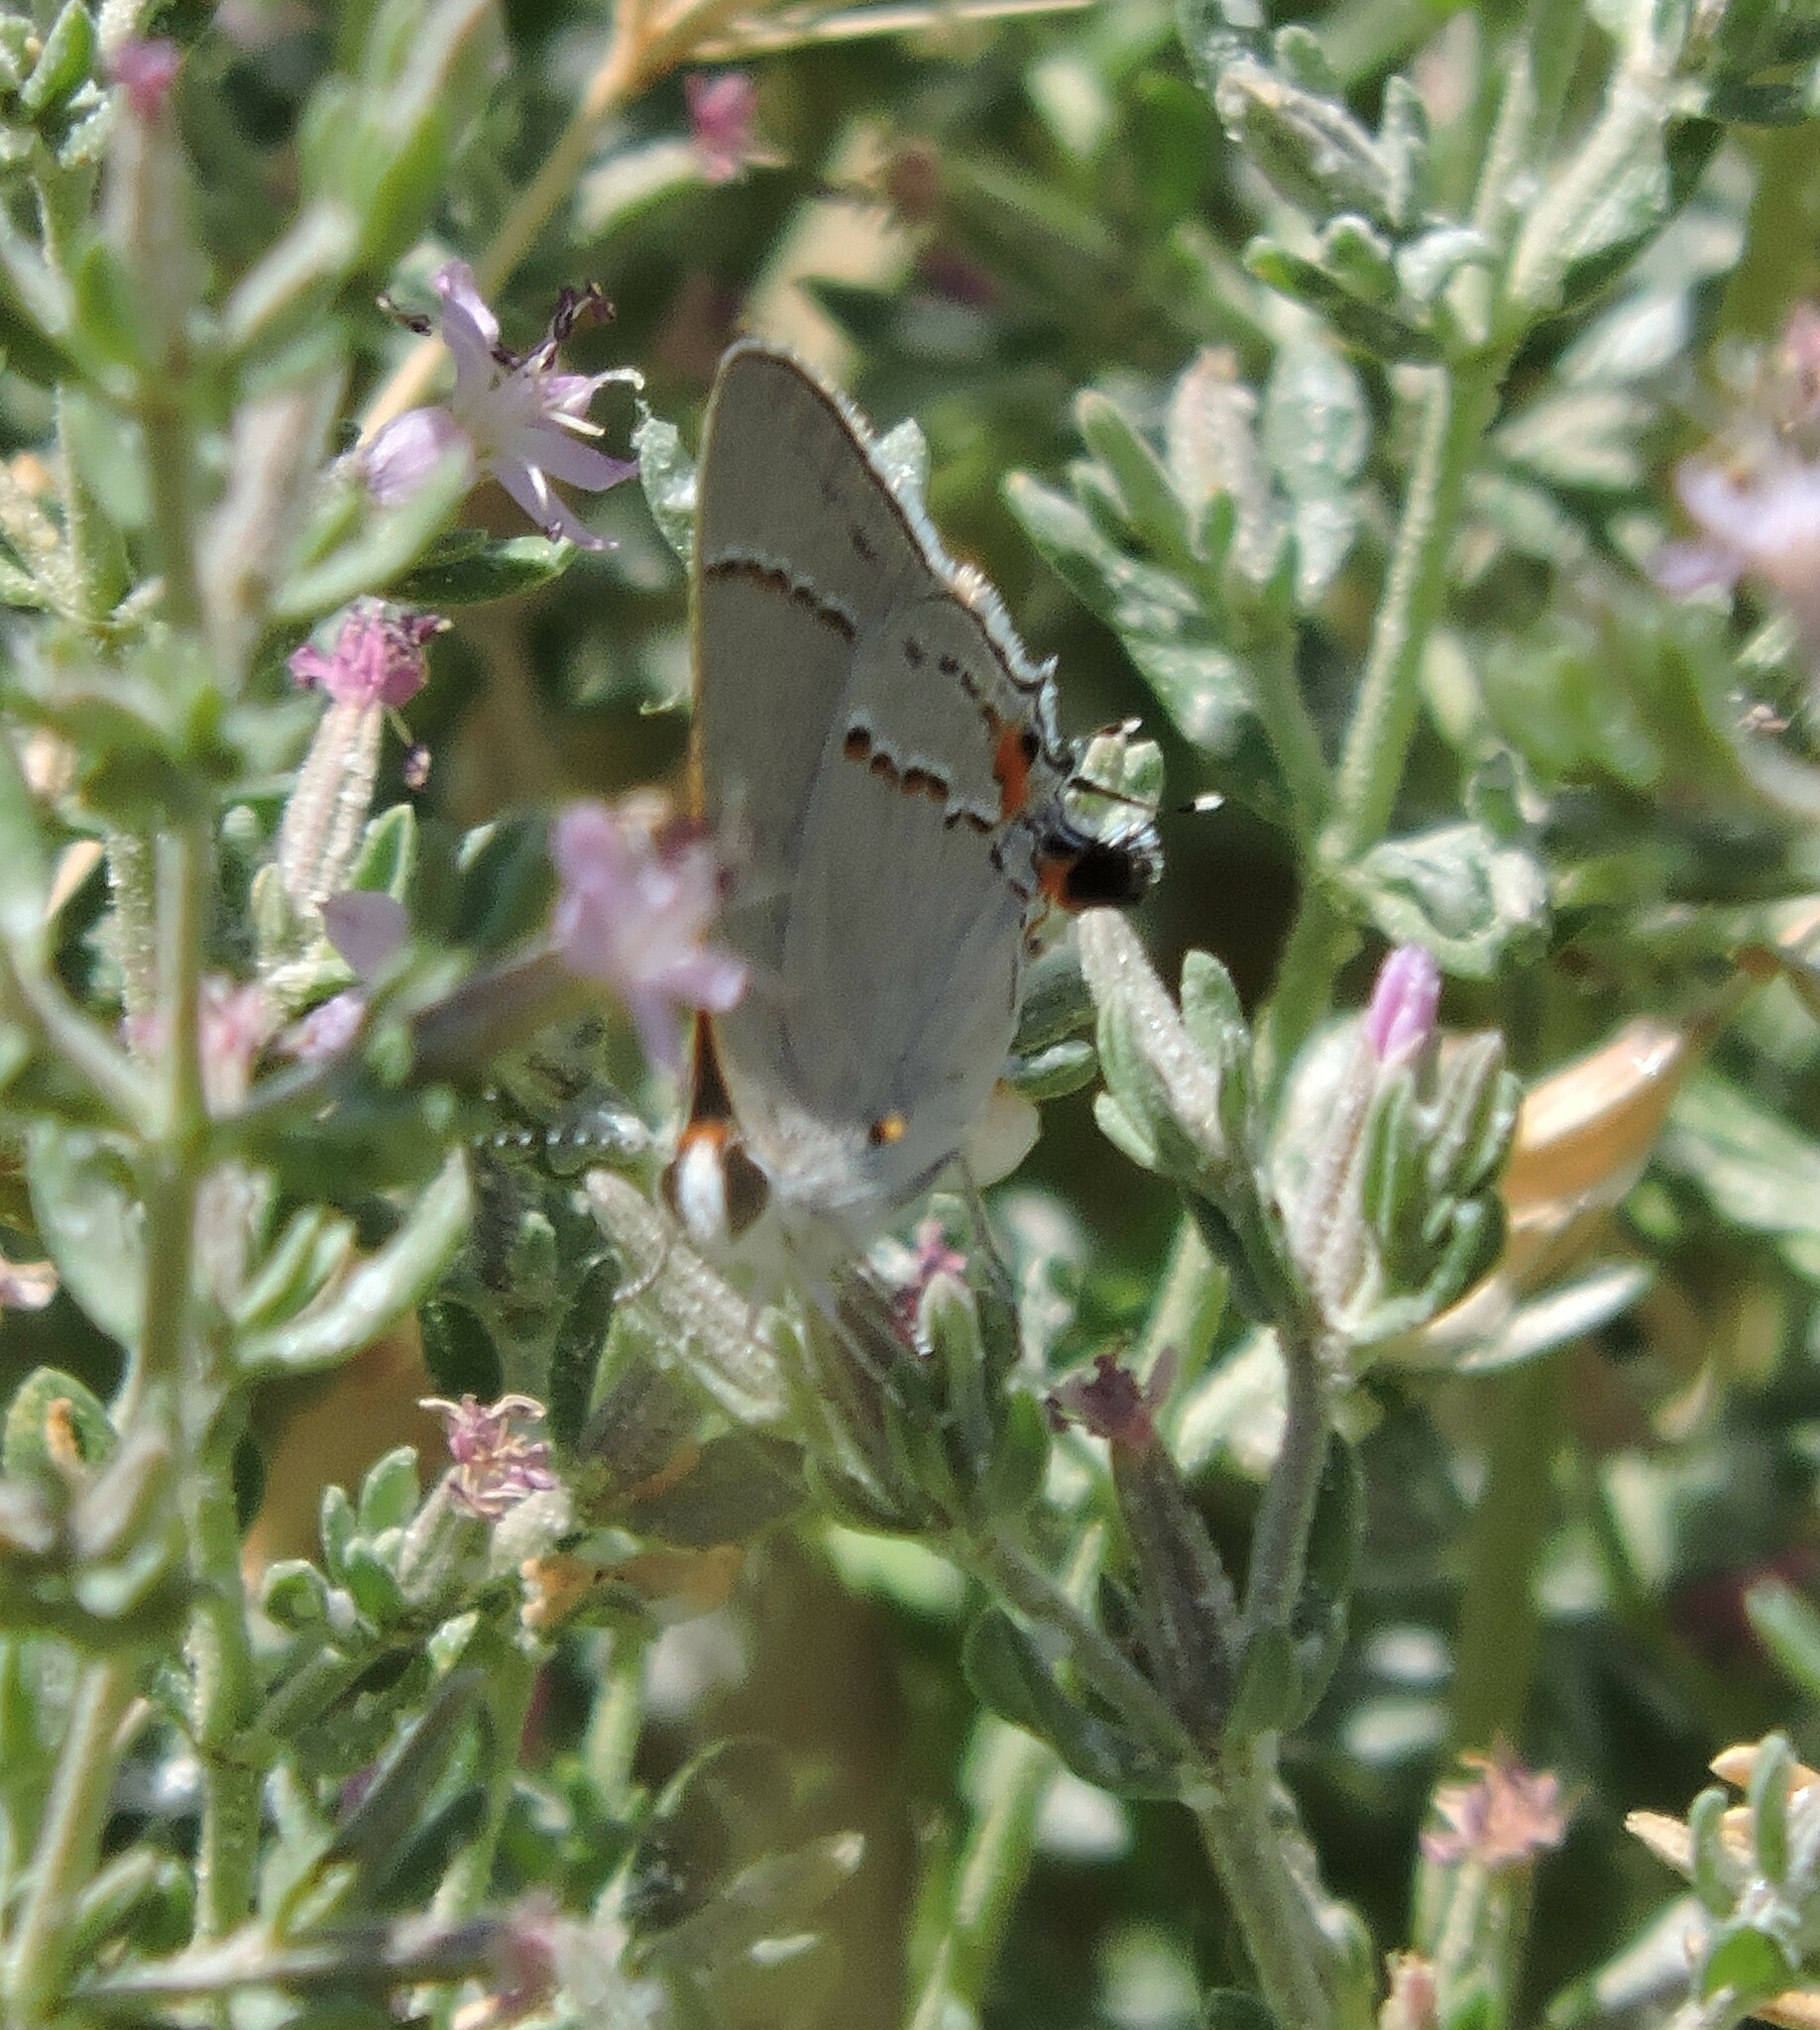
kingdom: Animalia
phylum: Arthropoda
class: Insecta
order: Lepidoptera
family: Lycaenidae
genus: Strymon
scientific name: Strymon melinus
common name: Gray hairstreak
